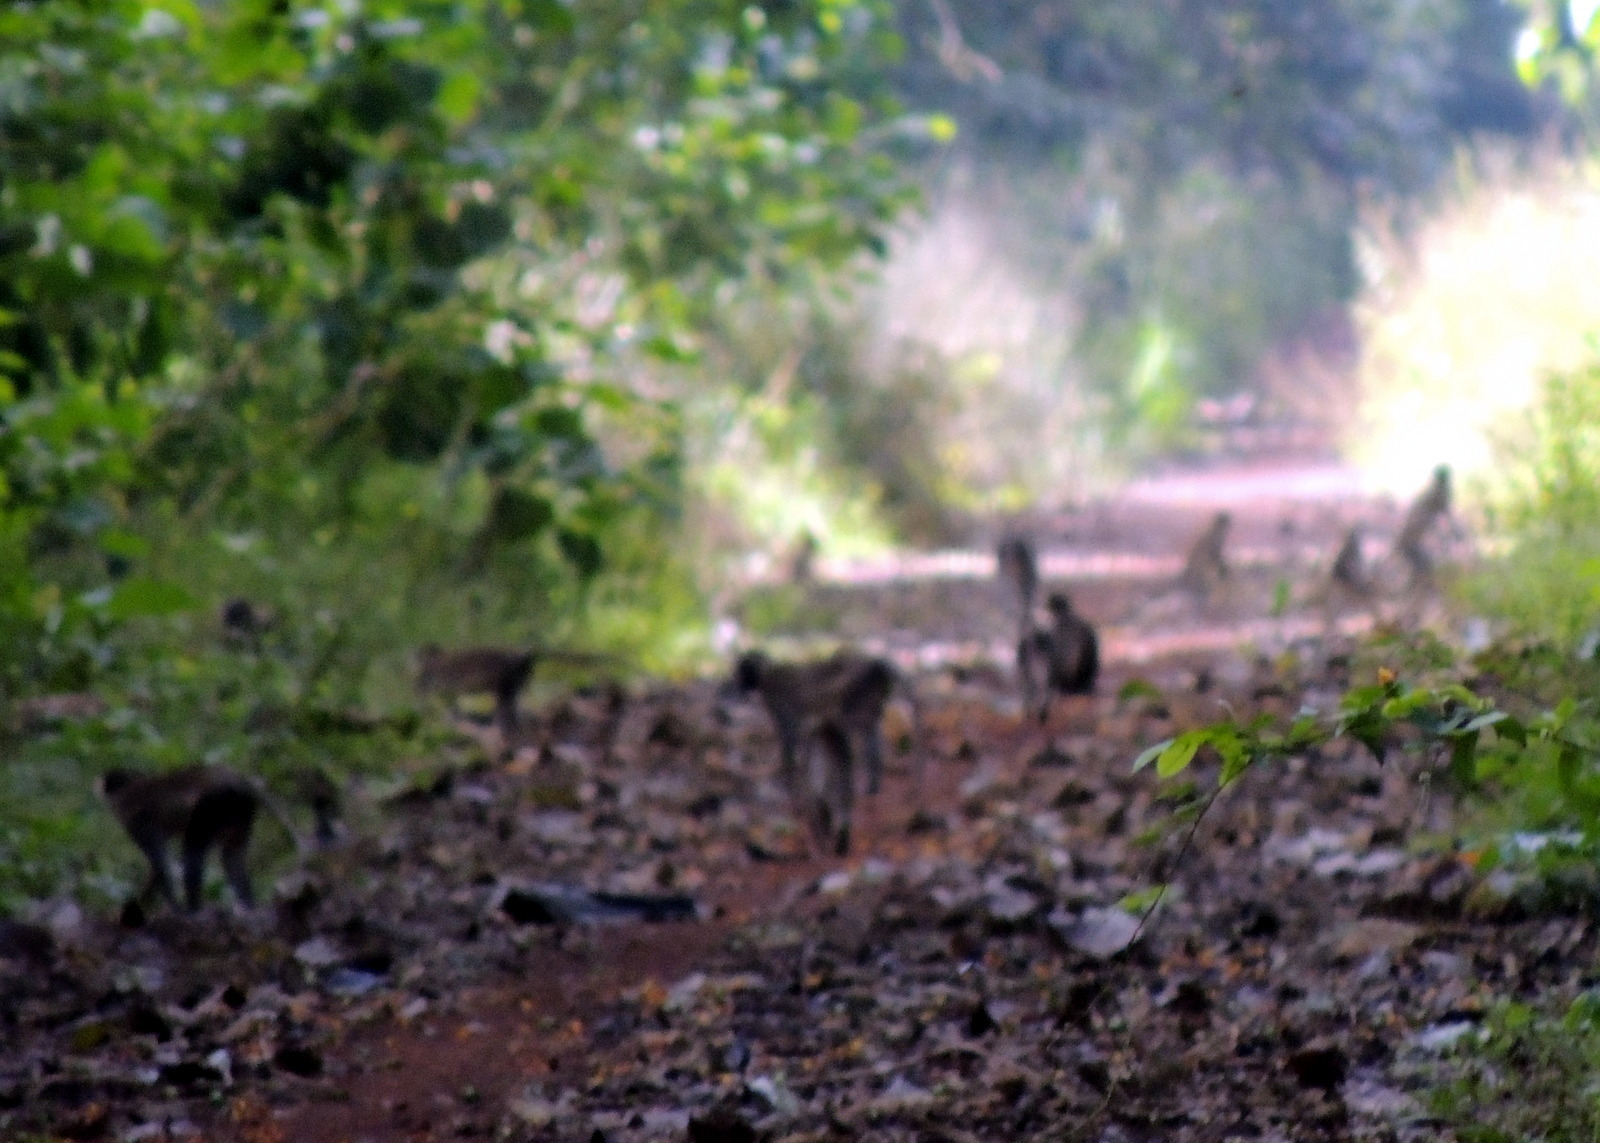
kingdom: Animalia
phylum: Chordata
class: Mammalia
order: Primates
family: Cercopithecidae
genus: Chlorocebus
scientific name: Chlorocebus tantalus
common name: Tantalus monkey
